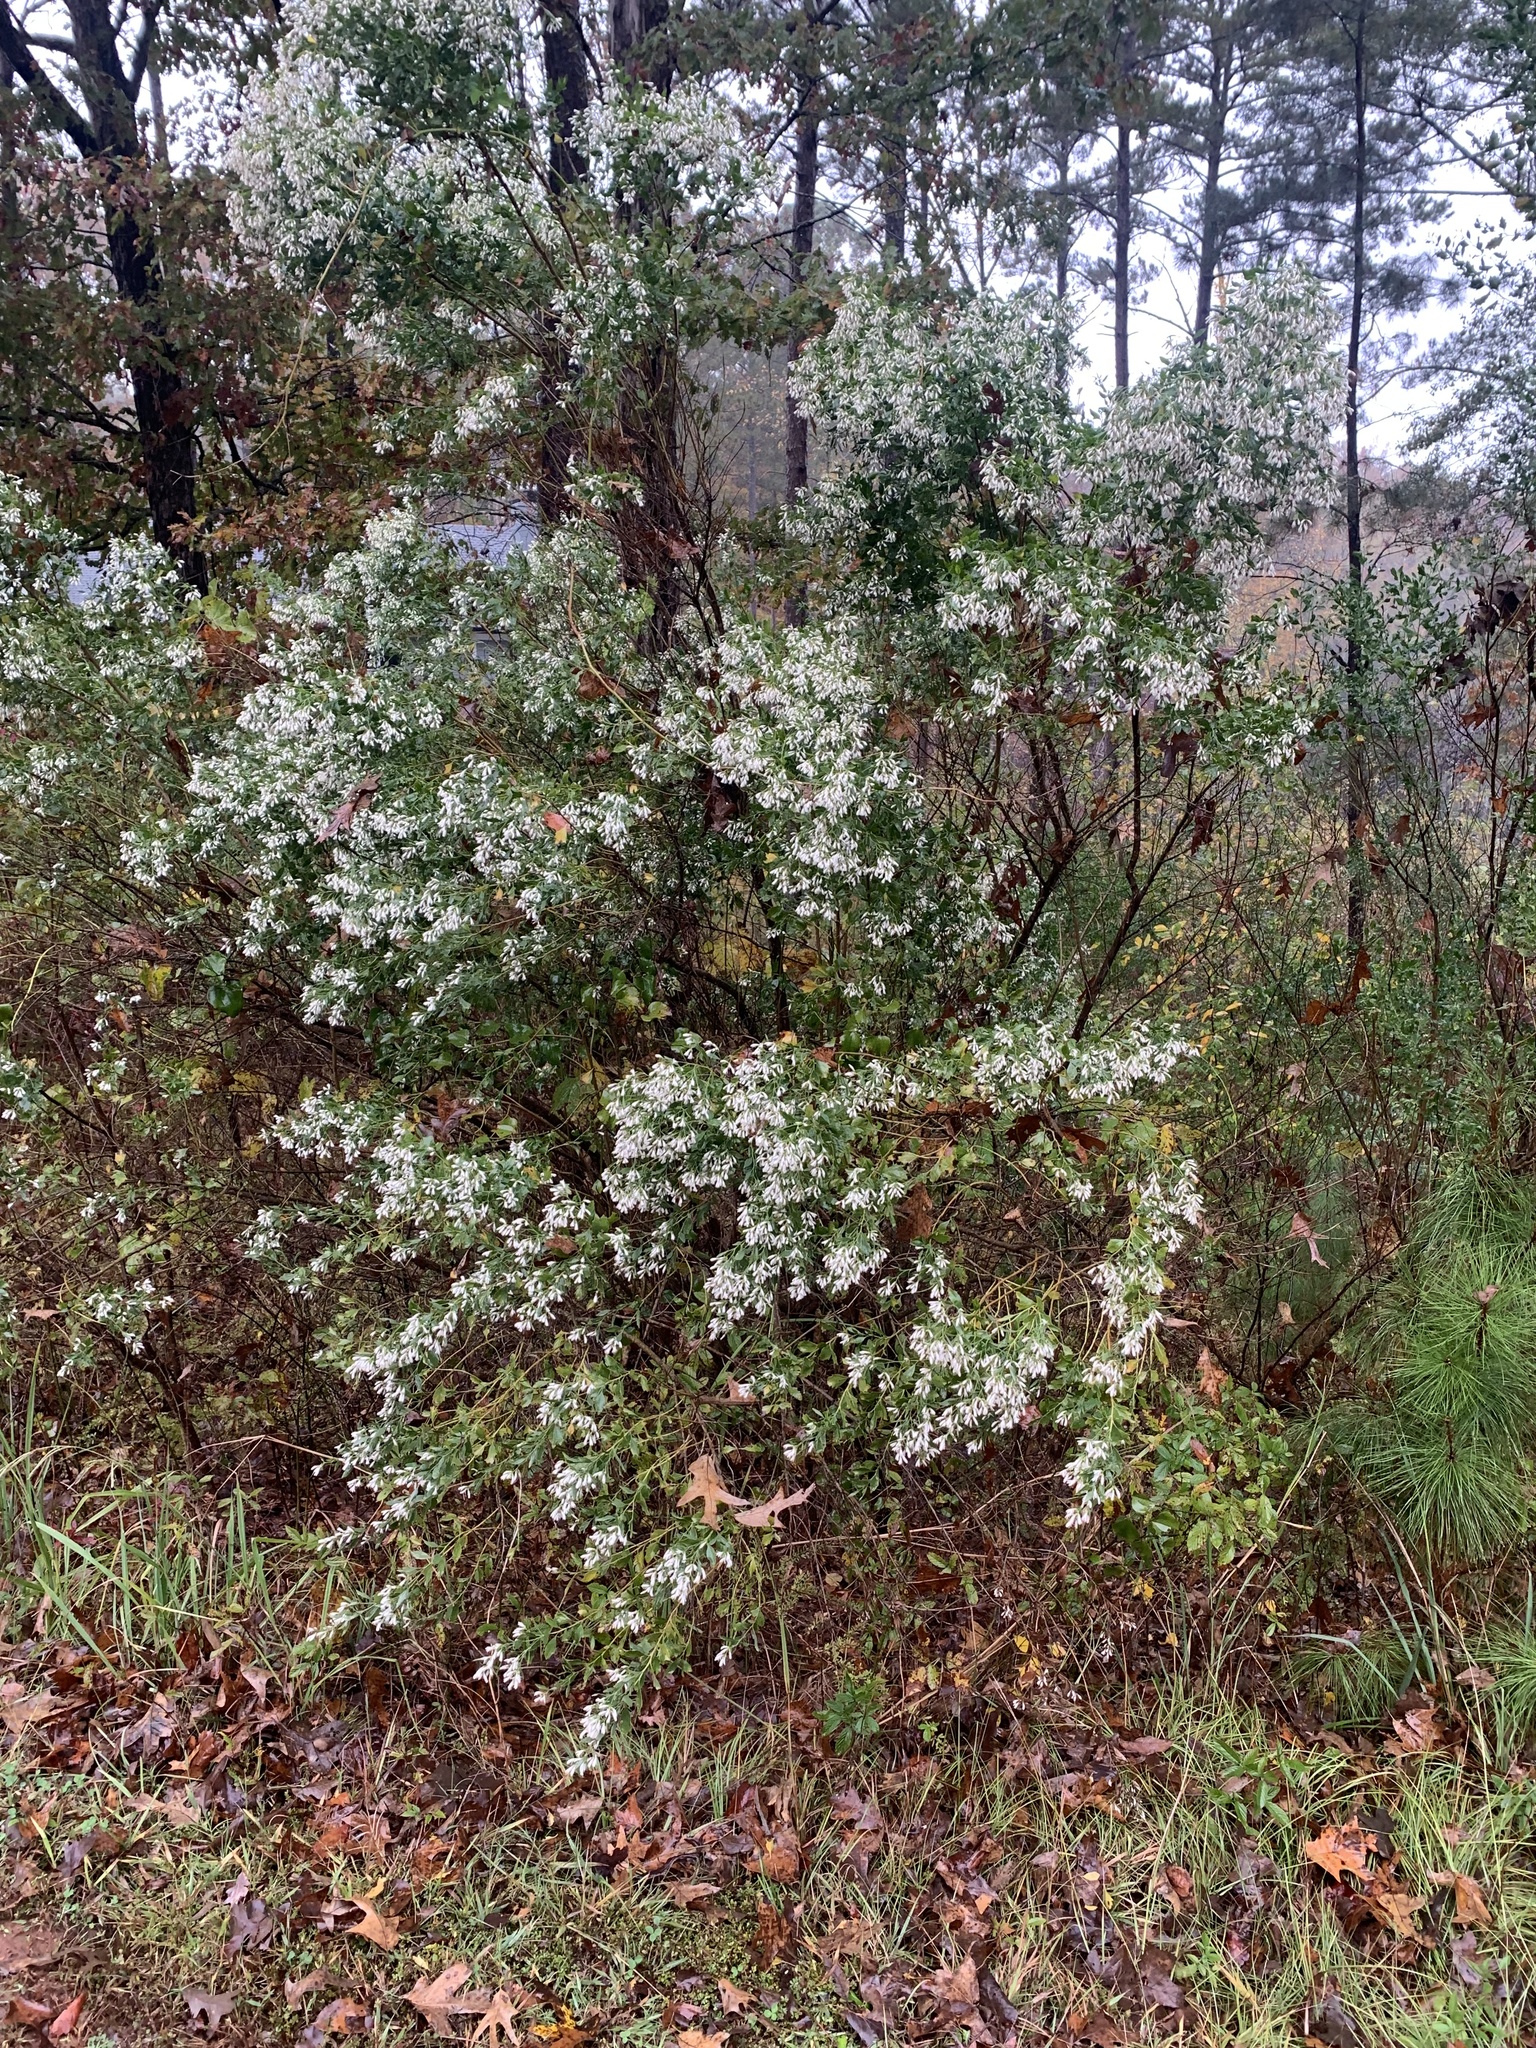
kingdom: Plantae
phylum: Tracheophyta
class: Magnoliopsida
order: Asterales
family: Asteraceae
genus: Baccharis
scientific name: Baccharis halimifolia
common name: Eastern baccharis
